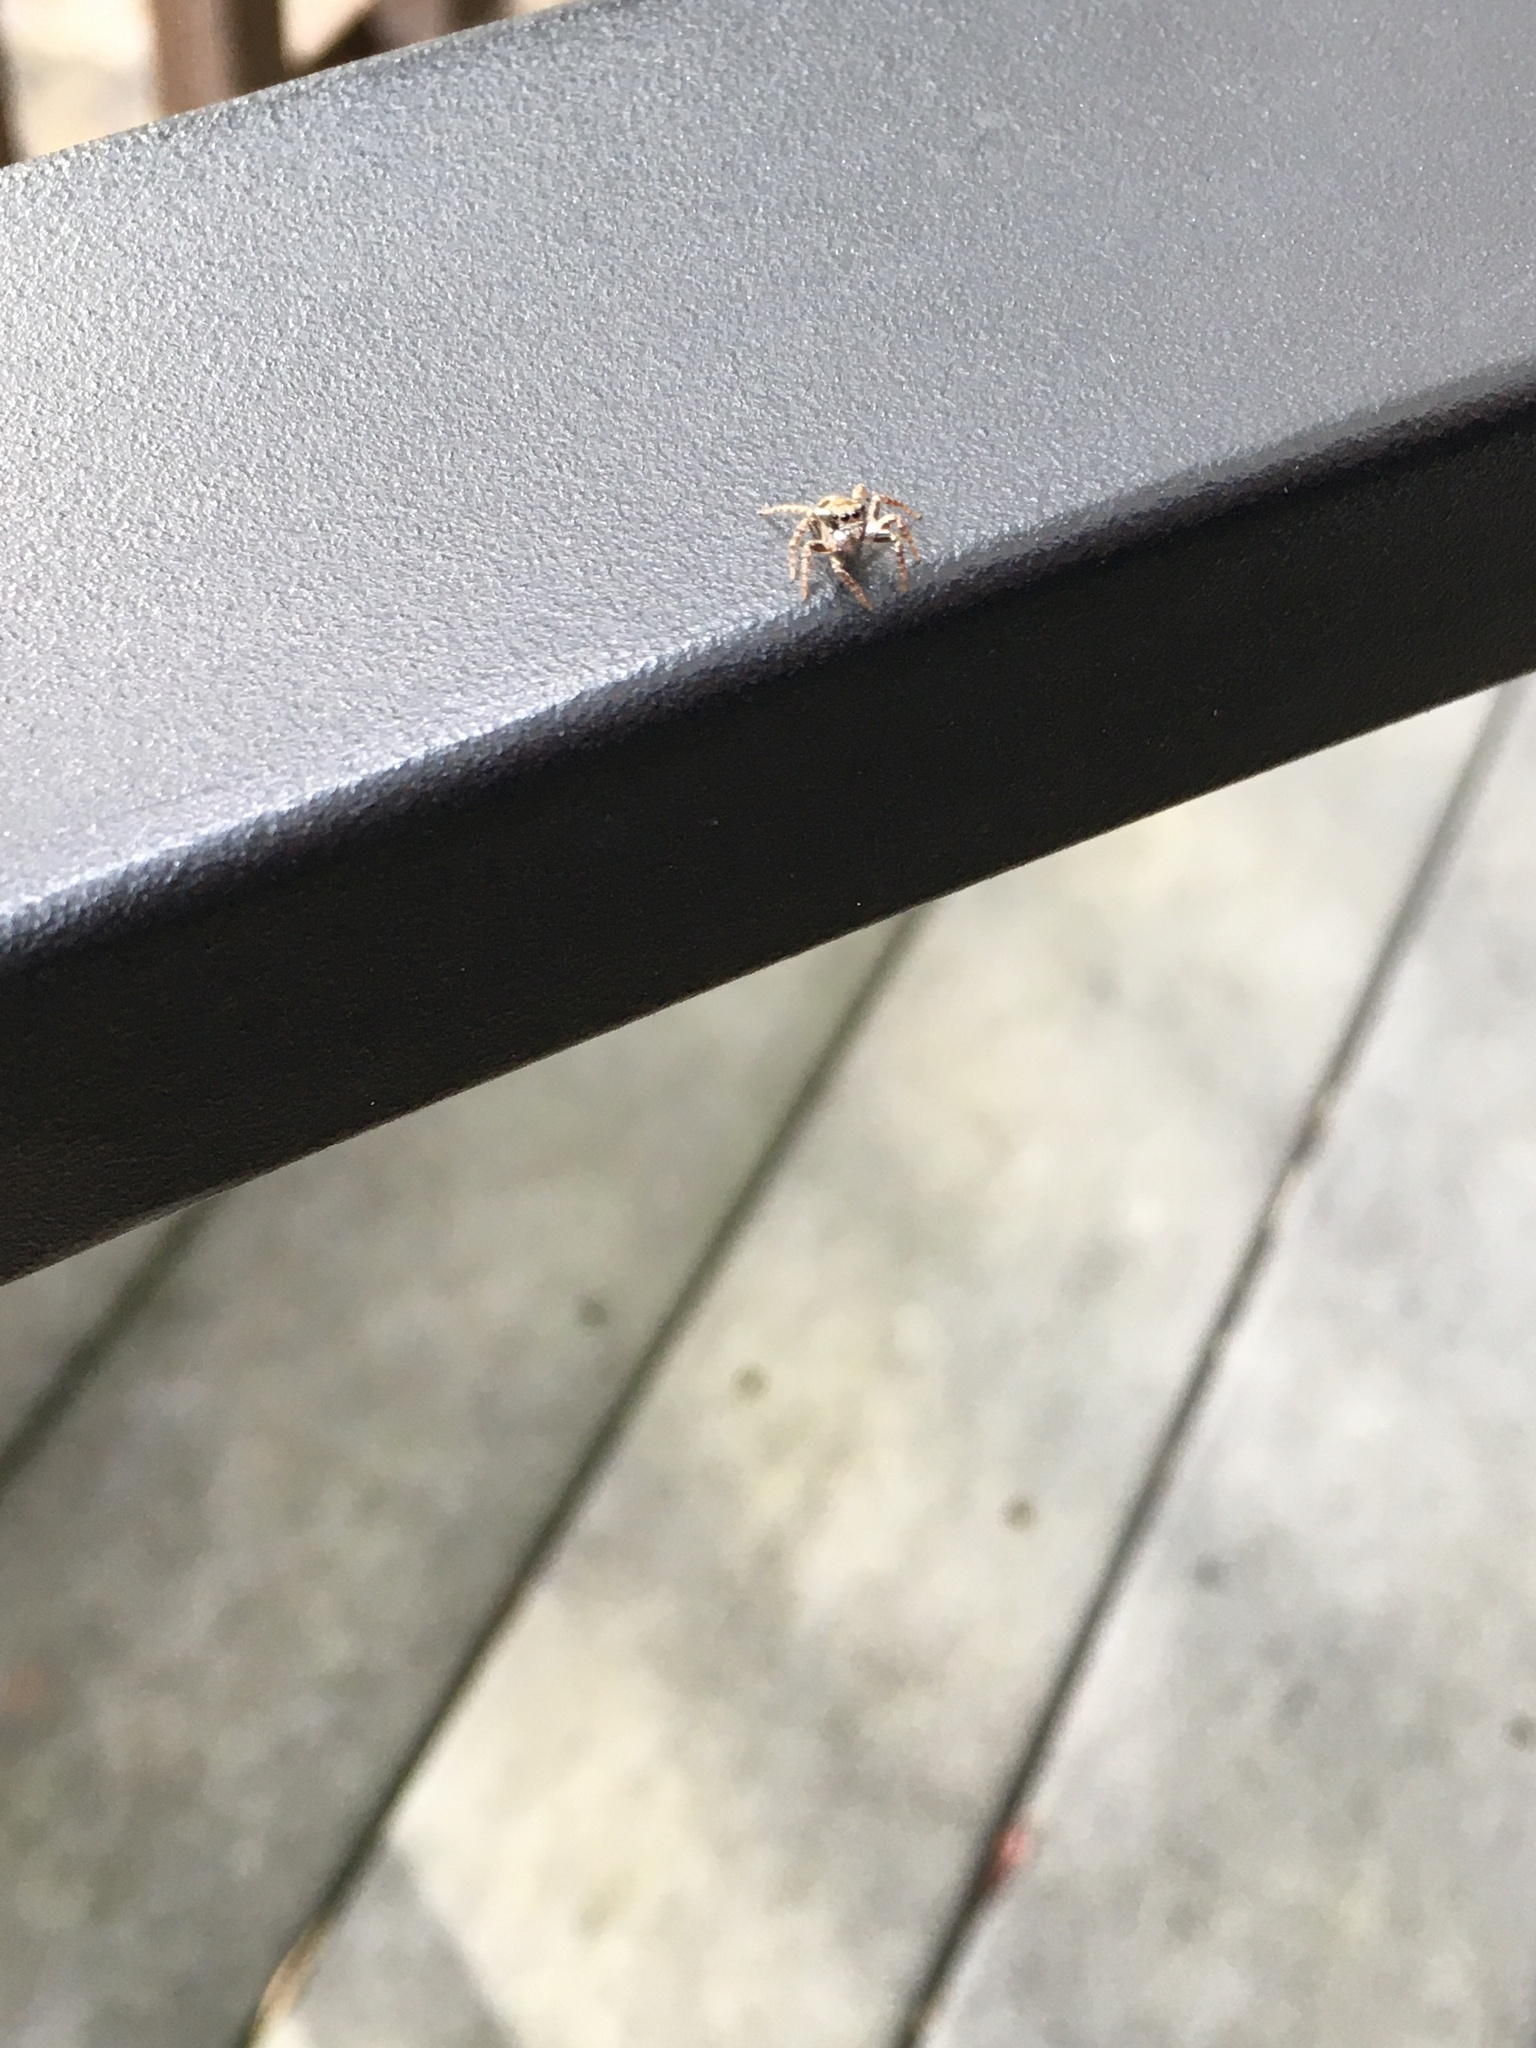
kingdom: Animalia
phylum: Arthropoda
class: Arachnida
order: Araneae
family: Salticidae
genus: Anasaitis
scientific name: Anasaitis canosa
